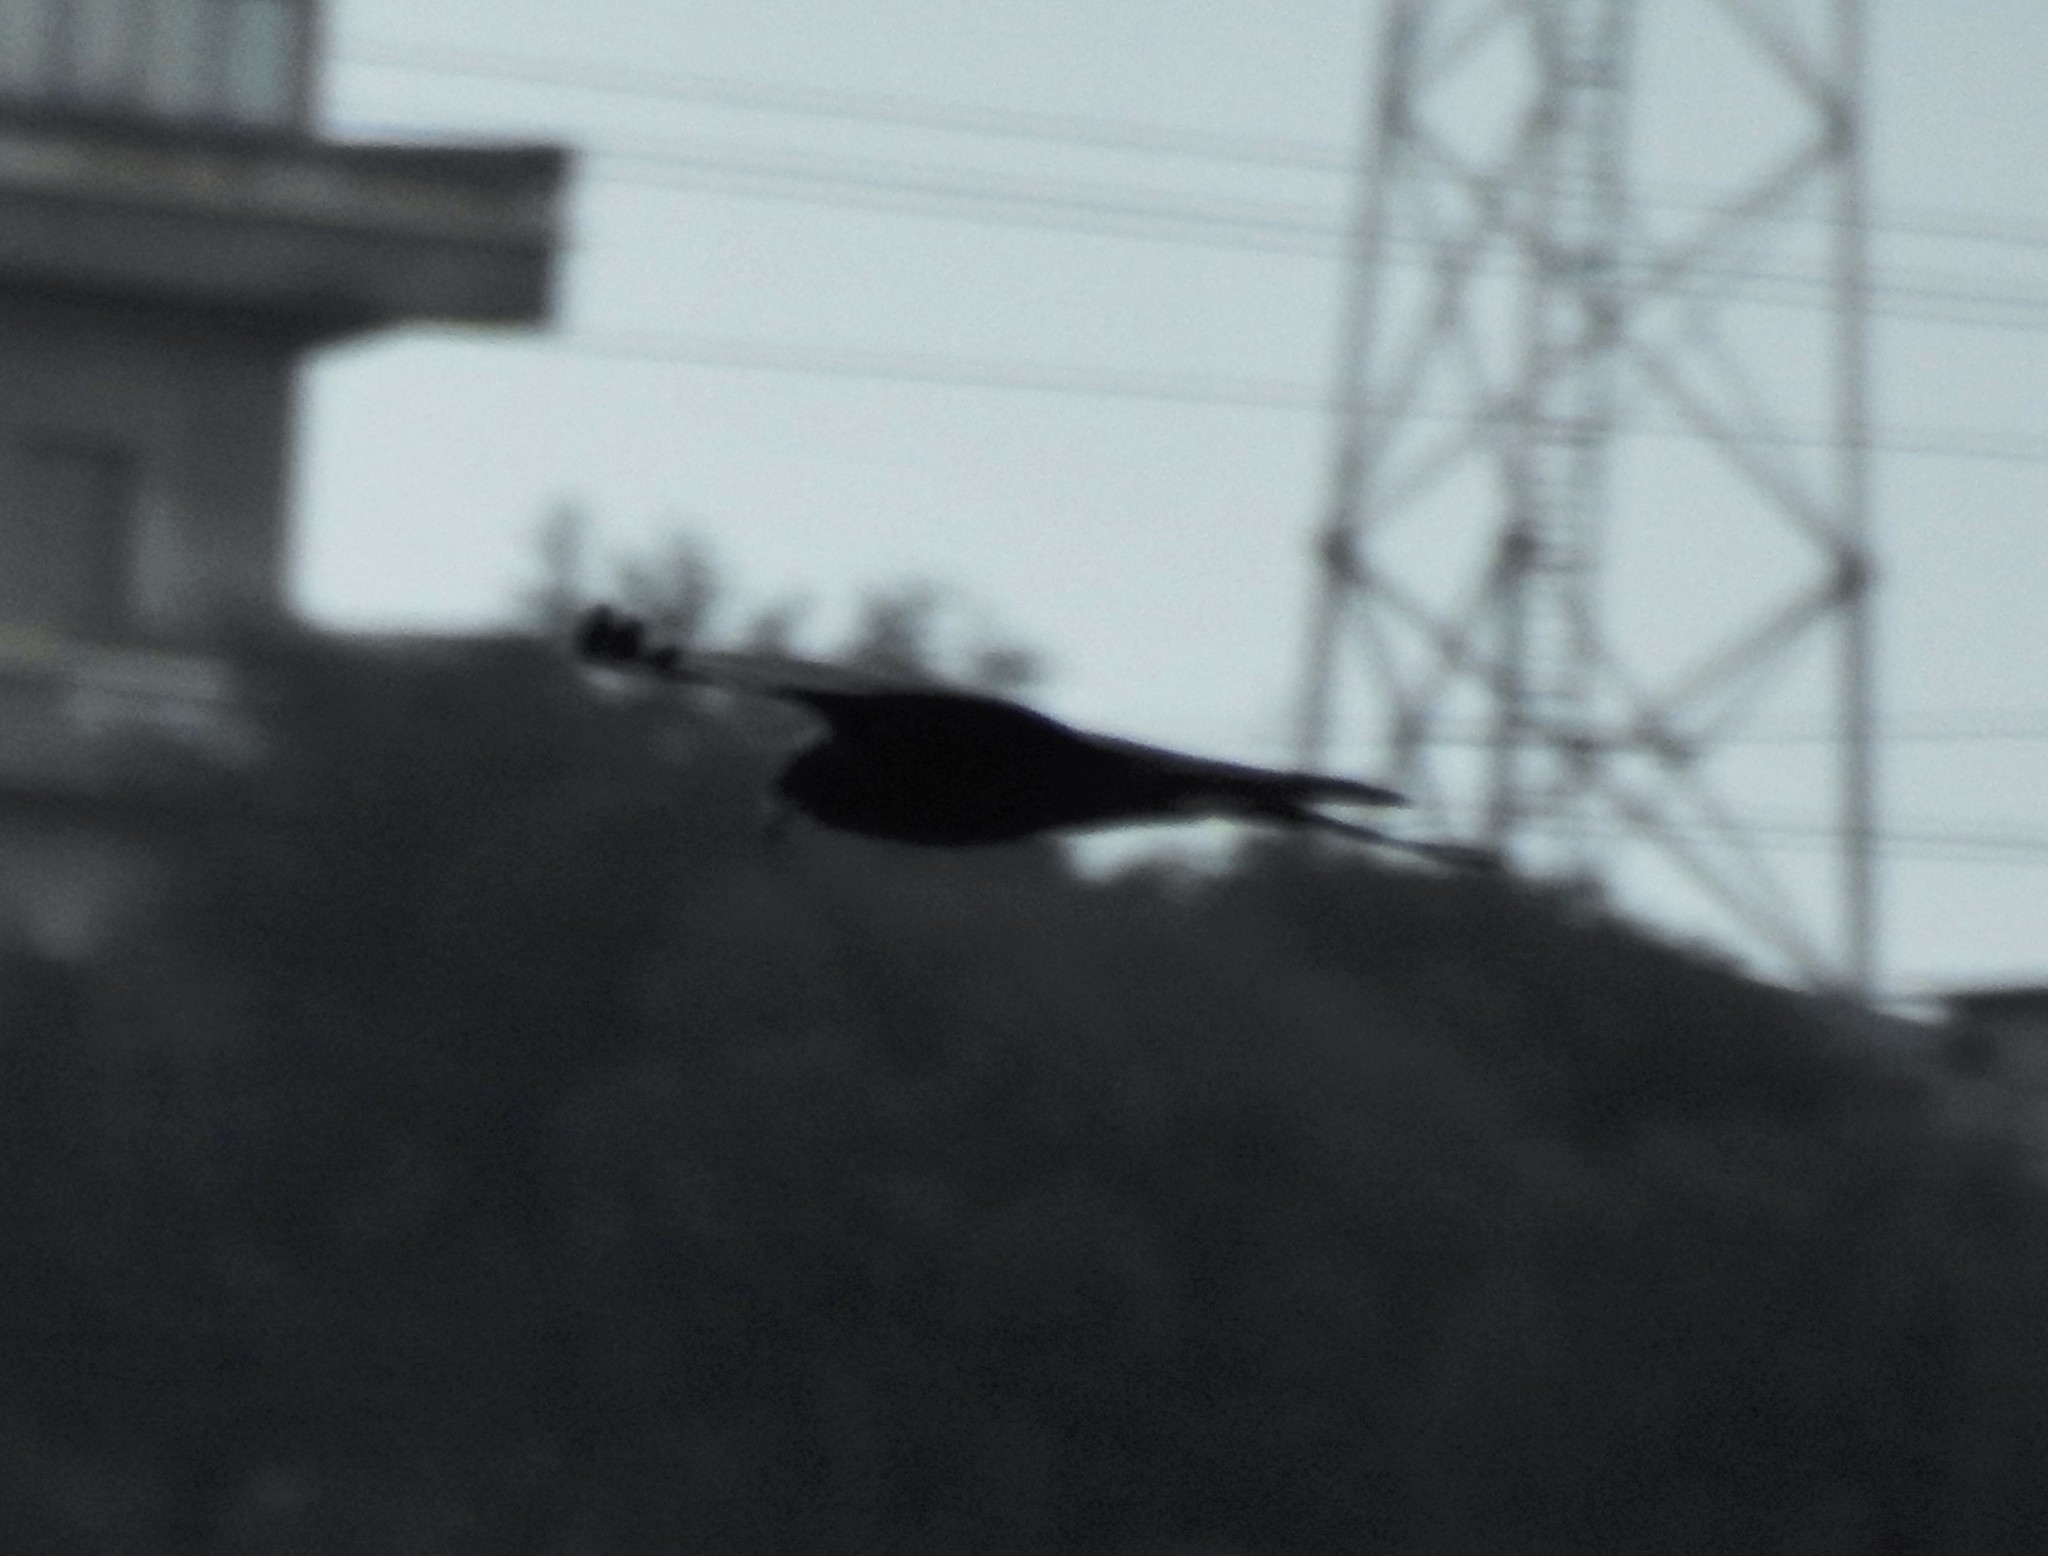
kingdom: Animalia
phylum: Chordata
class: Aves
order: Accipitriformes
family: Accipitridae
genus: Circus
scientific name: Circus aeruginosus
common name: Western marsh harrier
